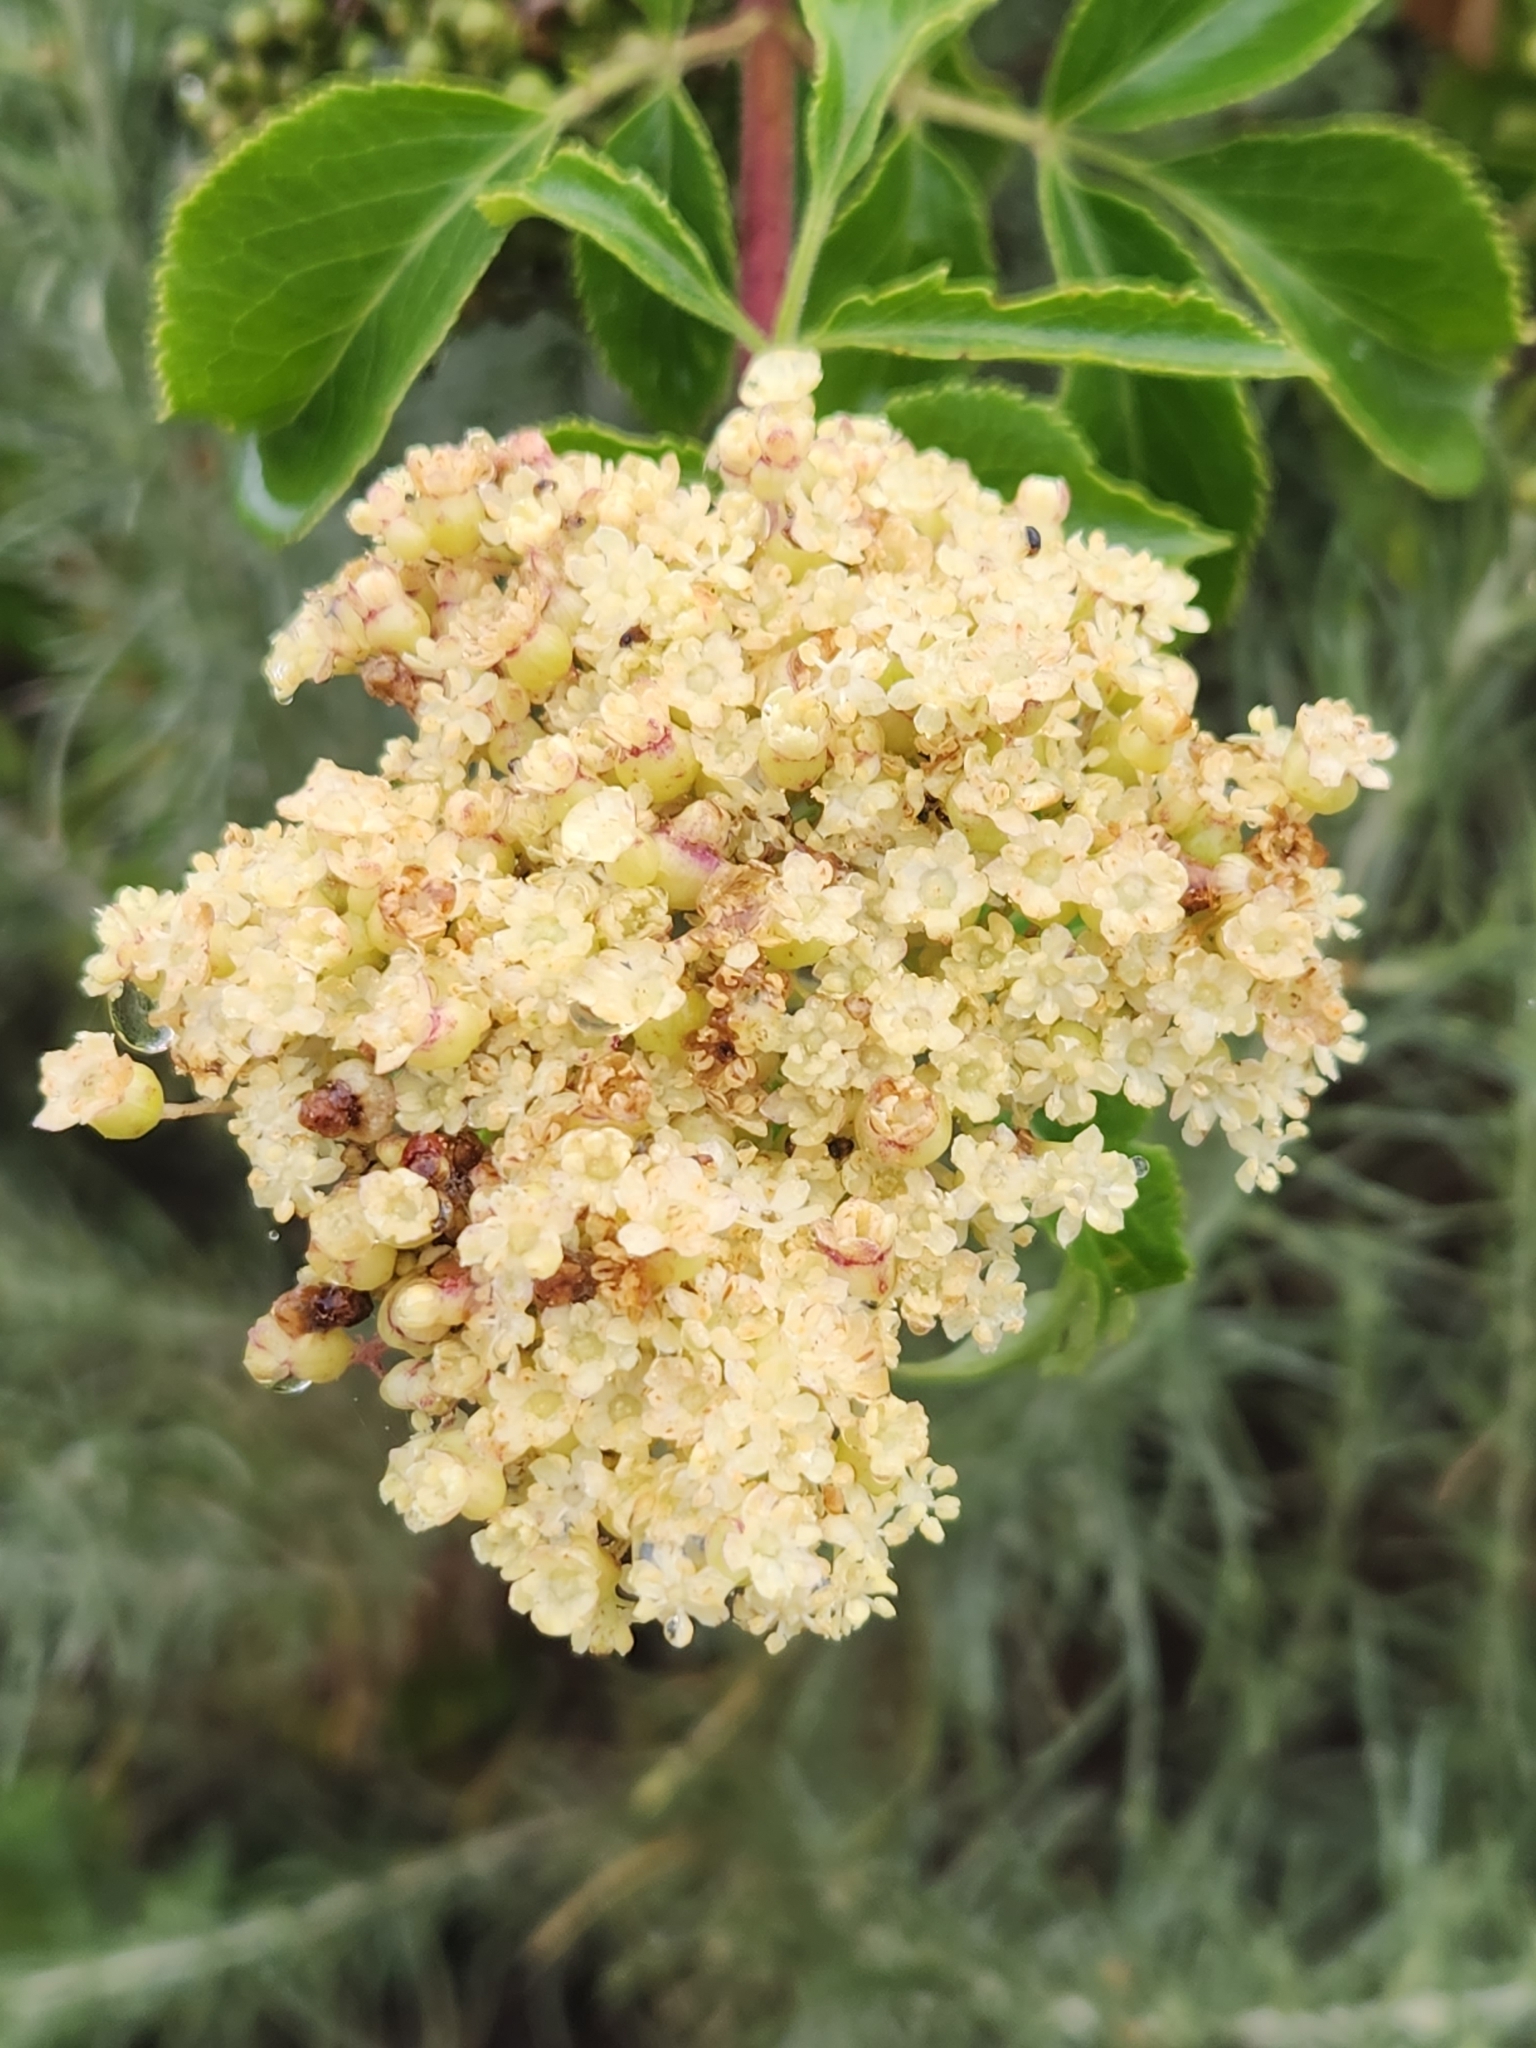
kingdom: Plantae
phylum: Tracheophyta
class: Magnoliopsida
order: Dipsacales
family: Viburnaceae
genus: Sambucus
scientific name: Sambucus cerulea
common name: Blue elder
